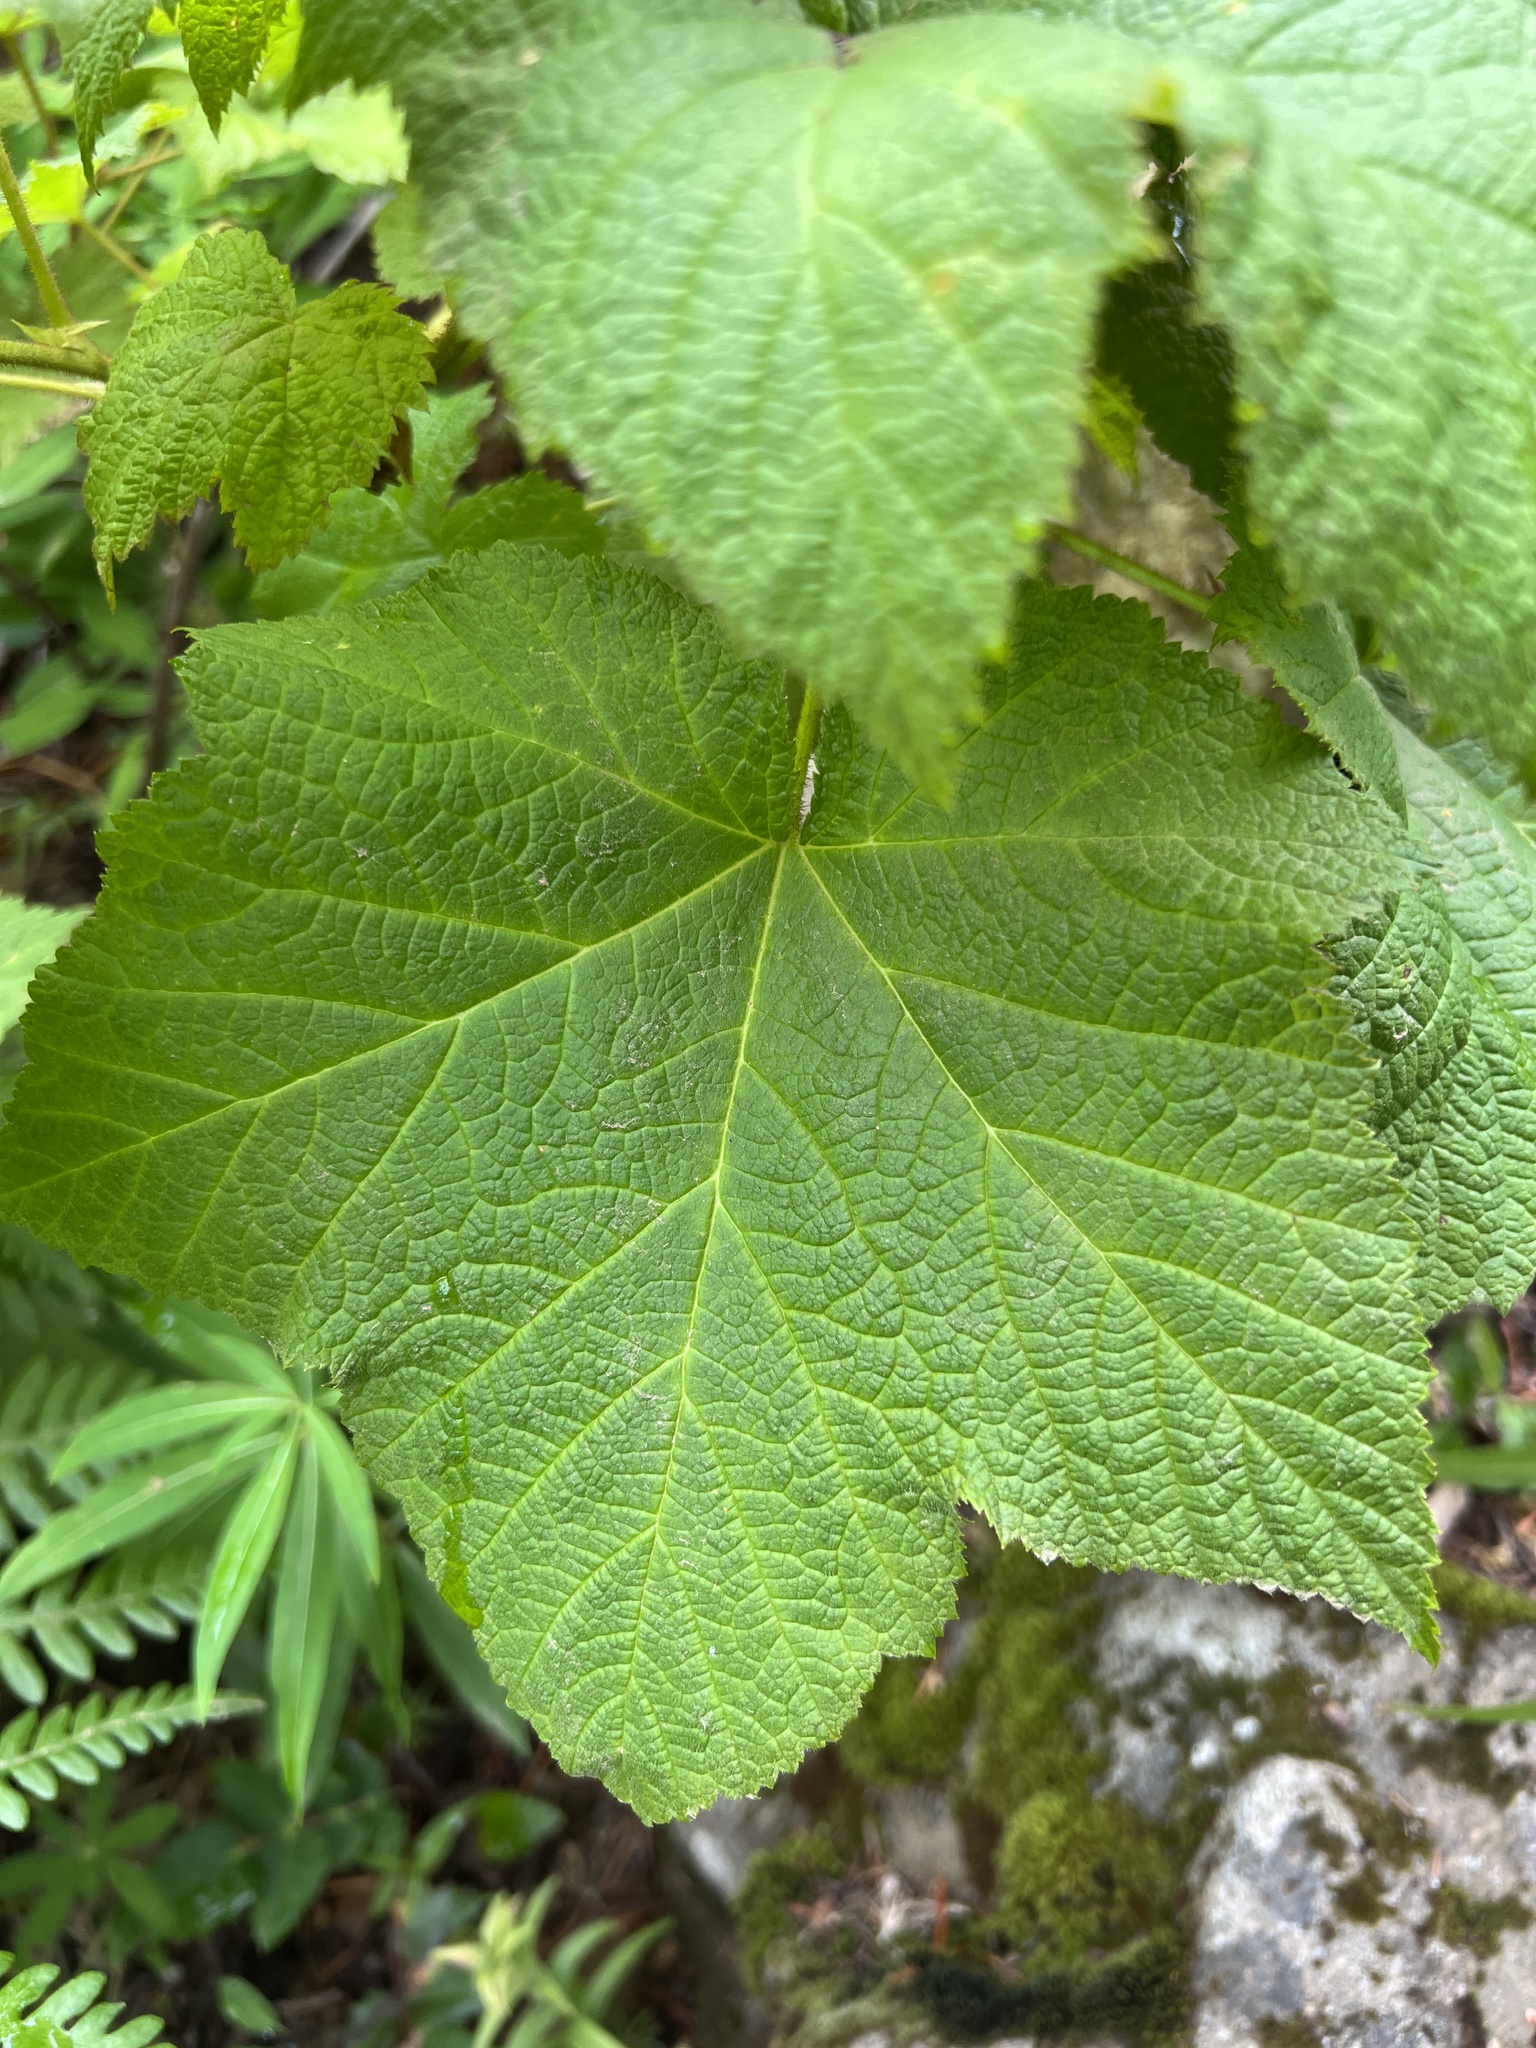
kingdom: Plantae
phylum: Tracheophyta
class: Magnoliopsida
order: Rosales
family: Rosaceae
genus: Rubus
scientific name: Rubus parviflorus
